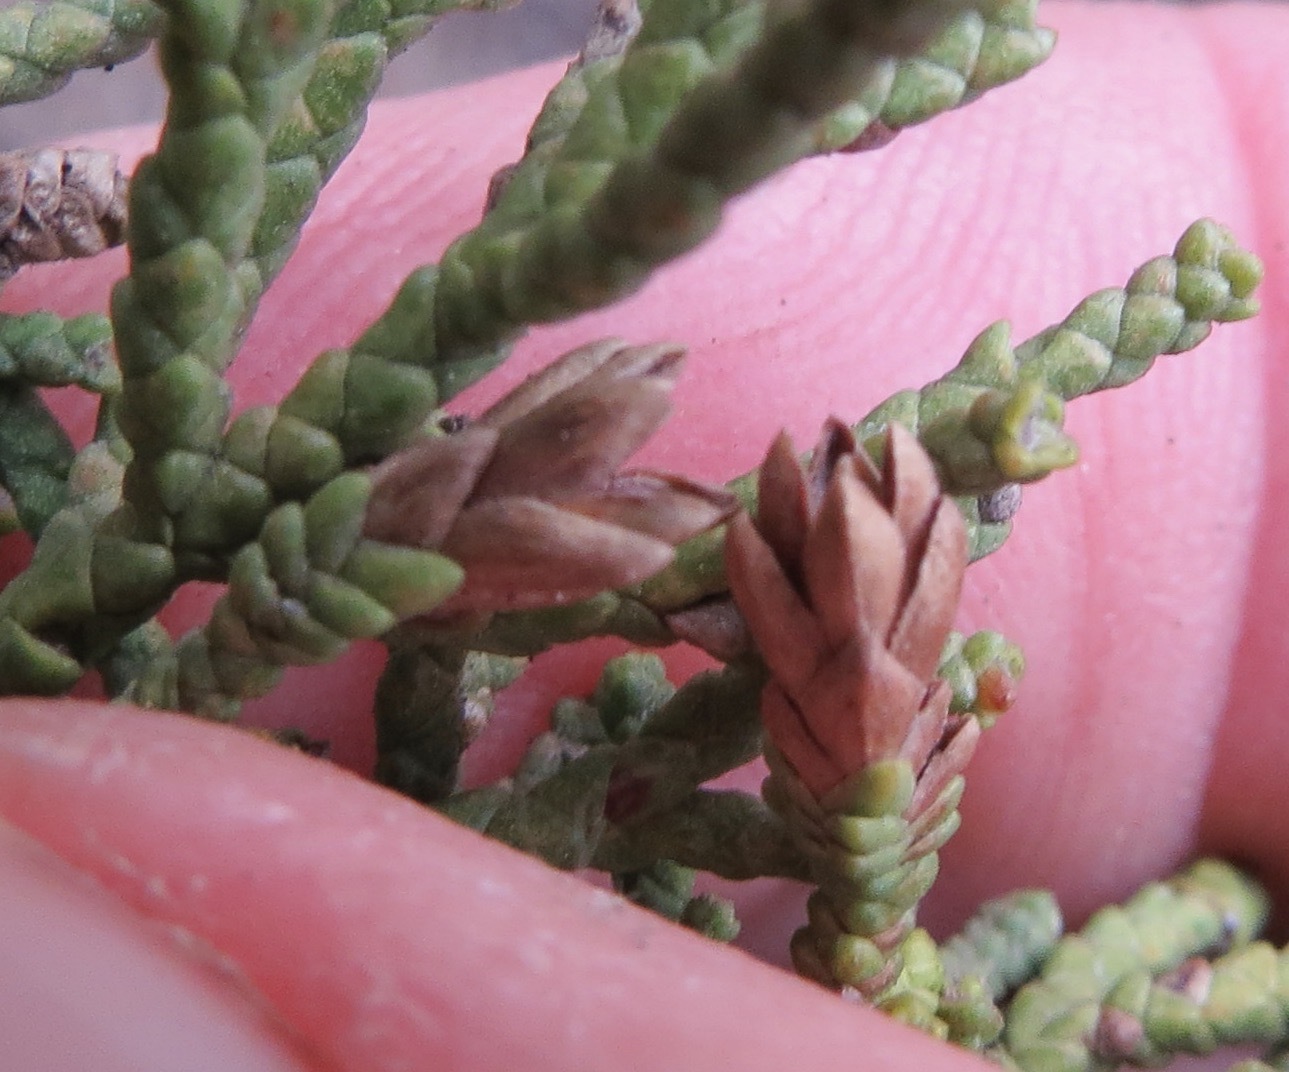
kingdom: Animalia
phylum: Arthropoda
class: Insecta
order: Diptera
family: Cecidomyiidae
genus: Oligotrophus
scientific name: Oligotrophus cupressi
